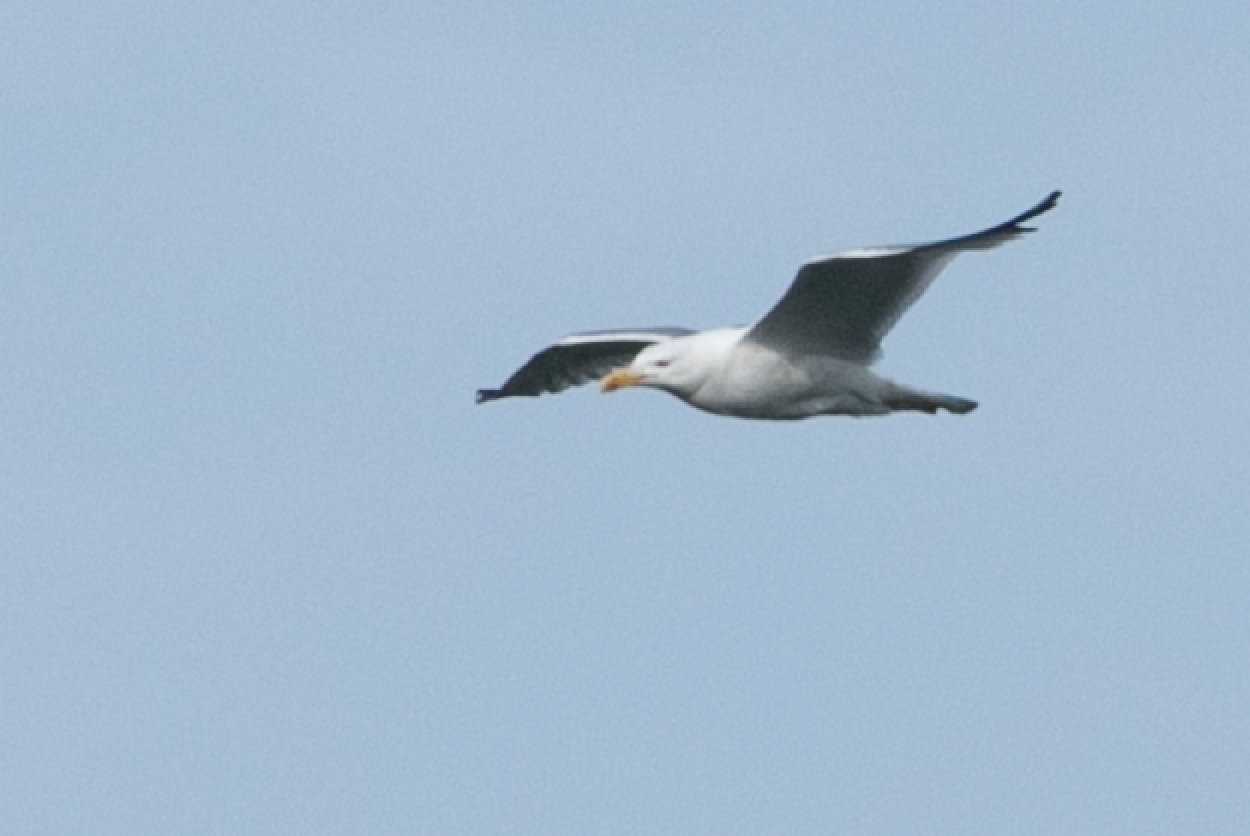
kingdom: Animalia
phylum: Chordata
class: Aves
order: Charadriiformes
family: Laridae
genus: Larus
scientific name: Larus michahellis
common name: Yellow-legged gull
